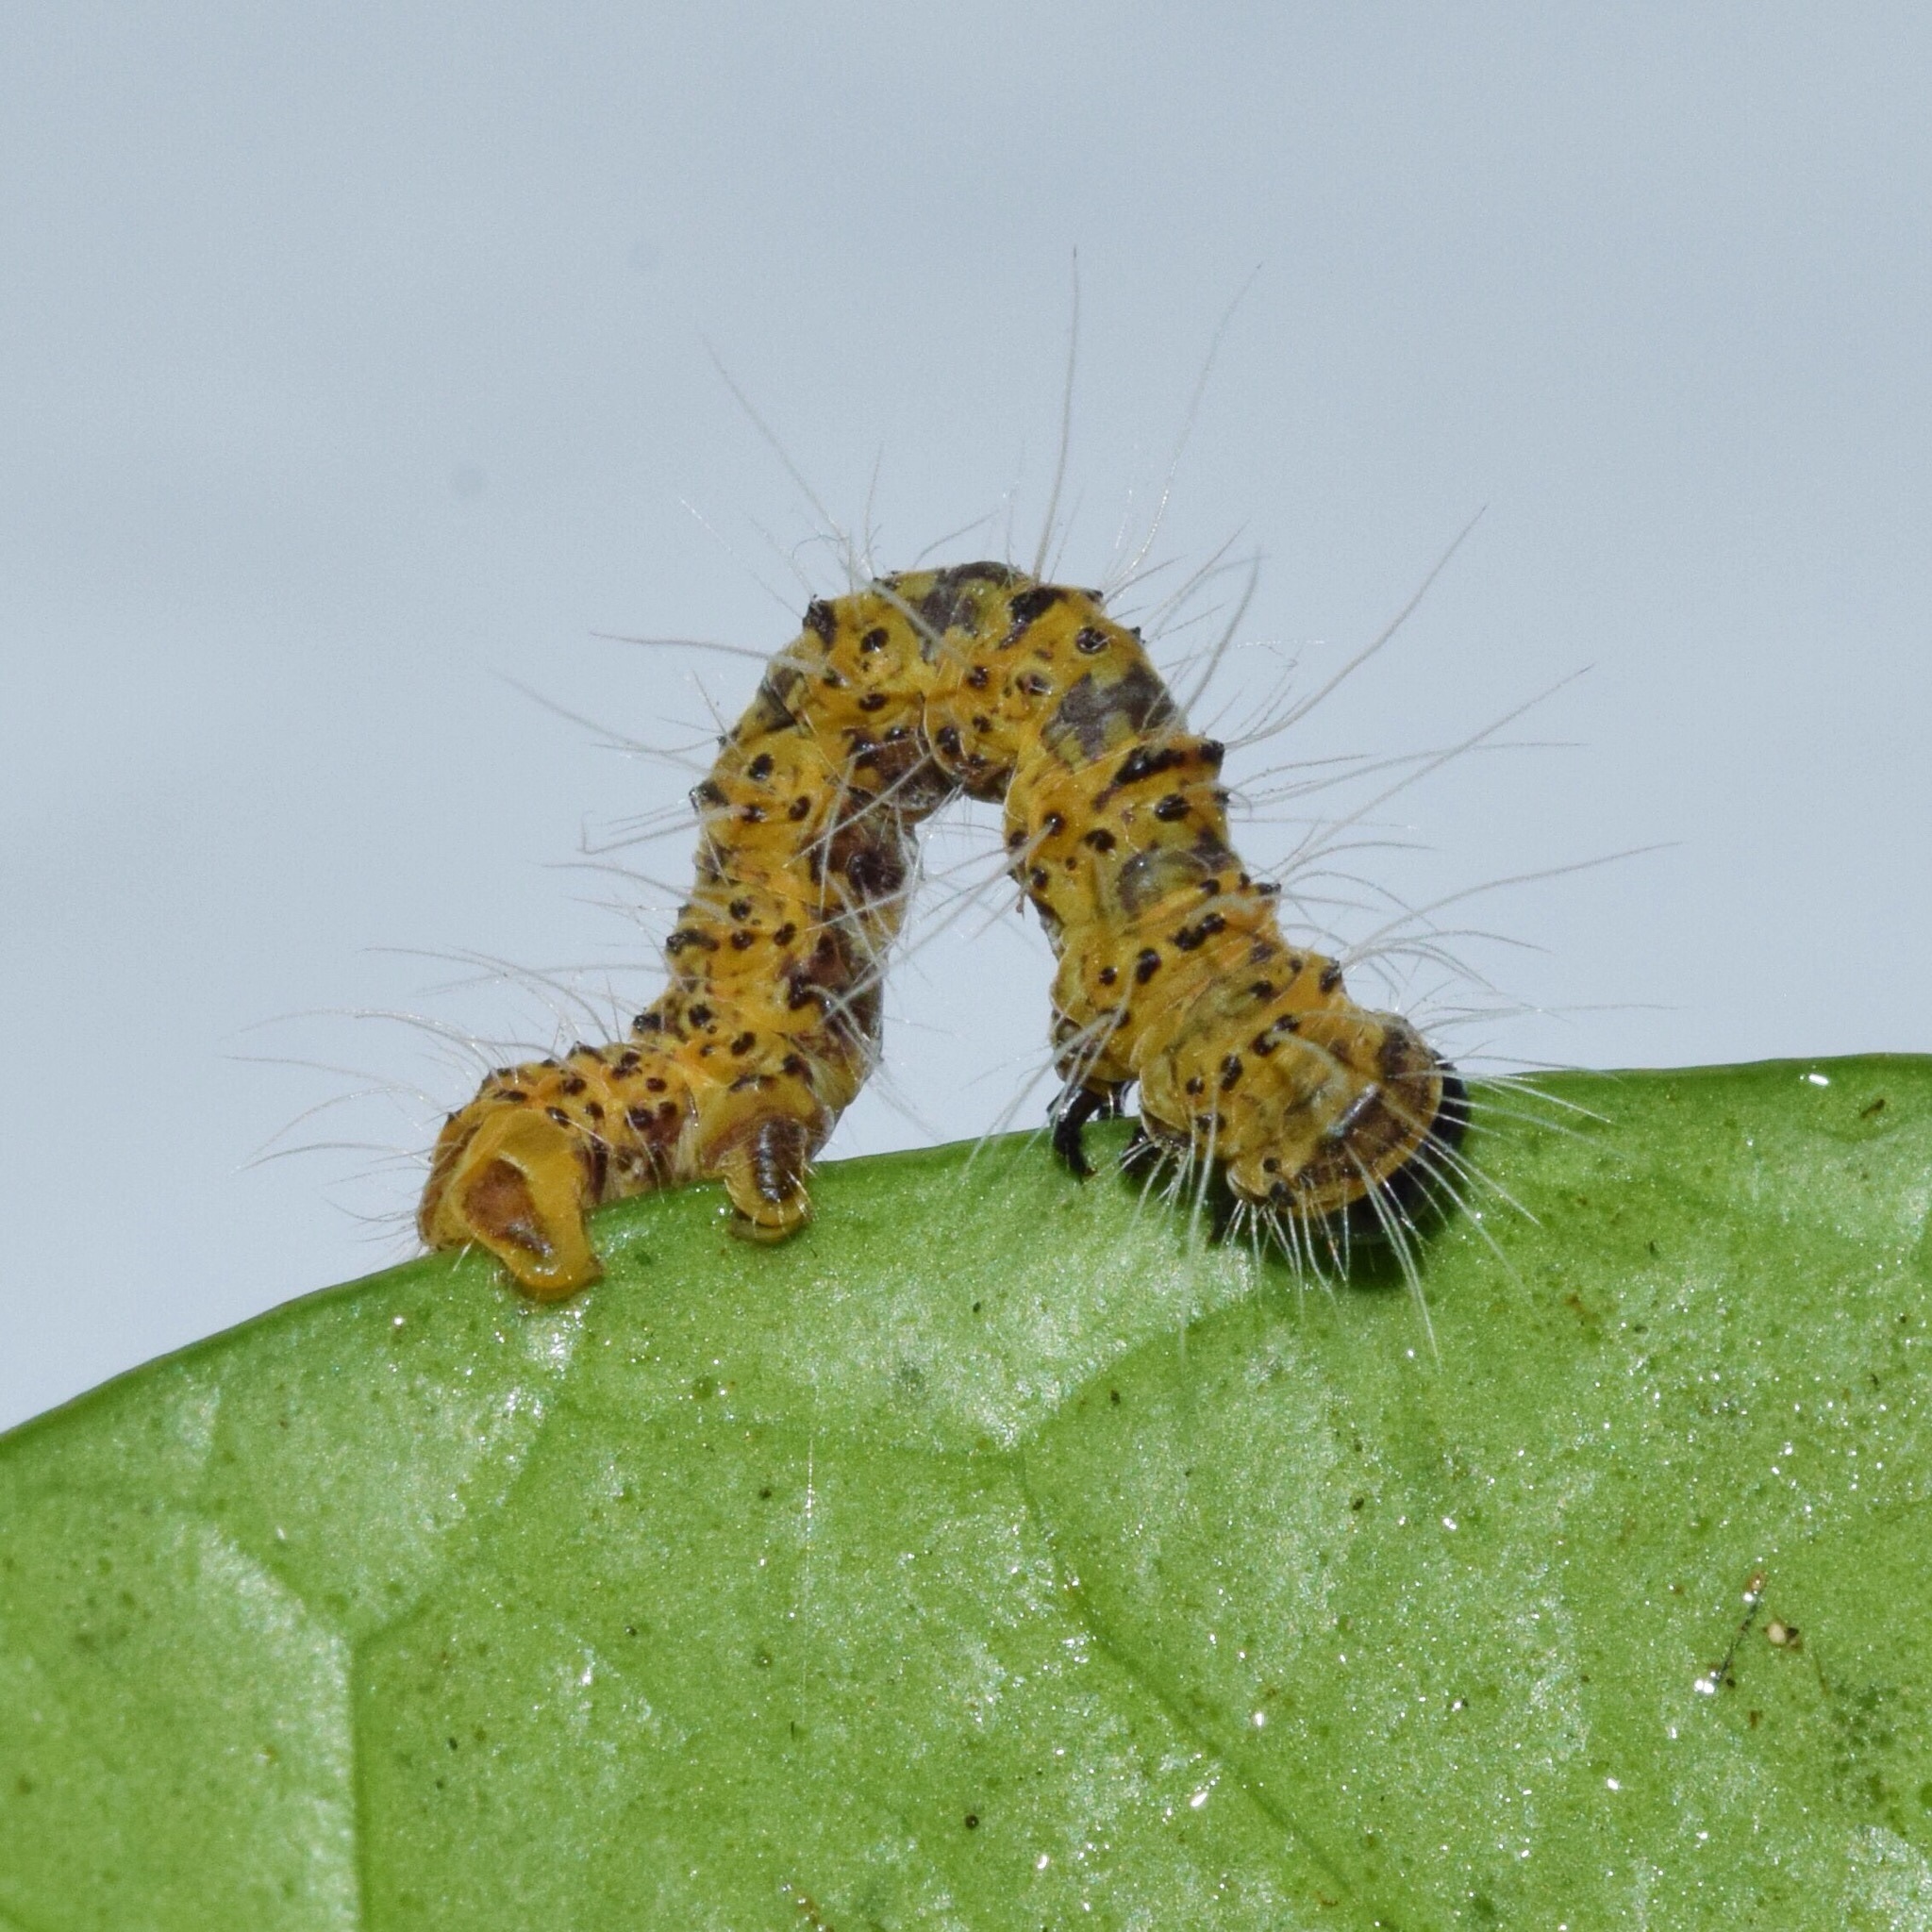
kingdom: Animalia
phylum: Arthropoda
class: Insecta
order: Lepidoptera
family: Geometridae
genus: Zerenopsis
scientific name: Zerenopsis geometrina
